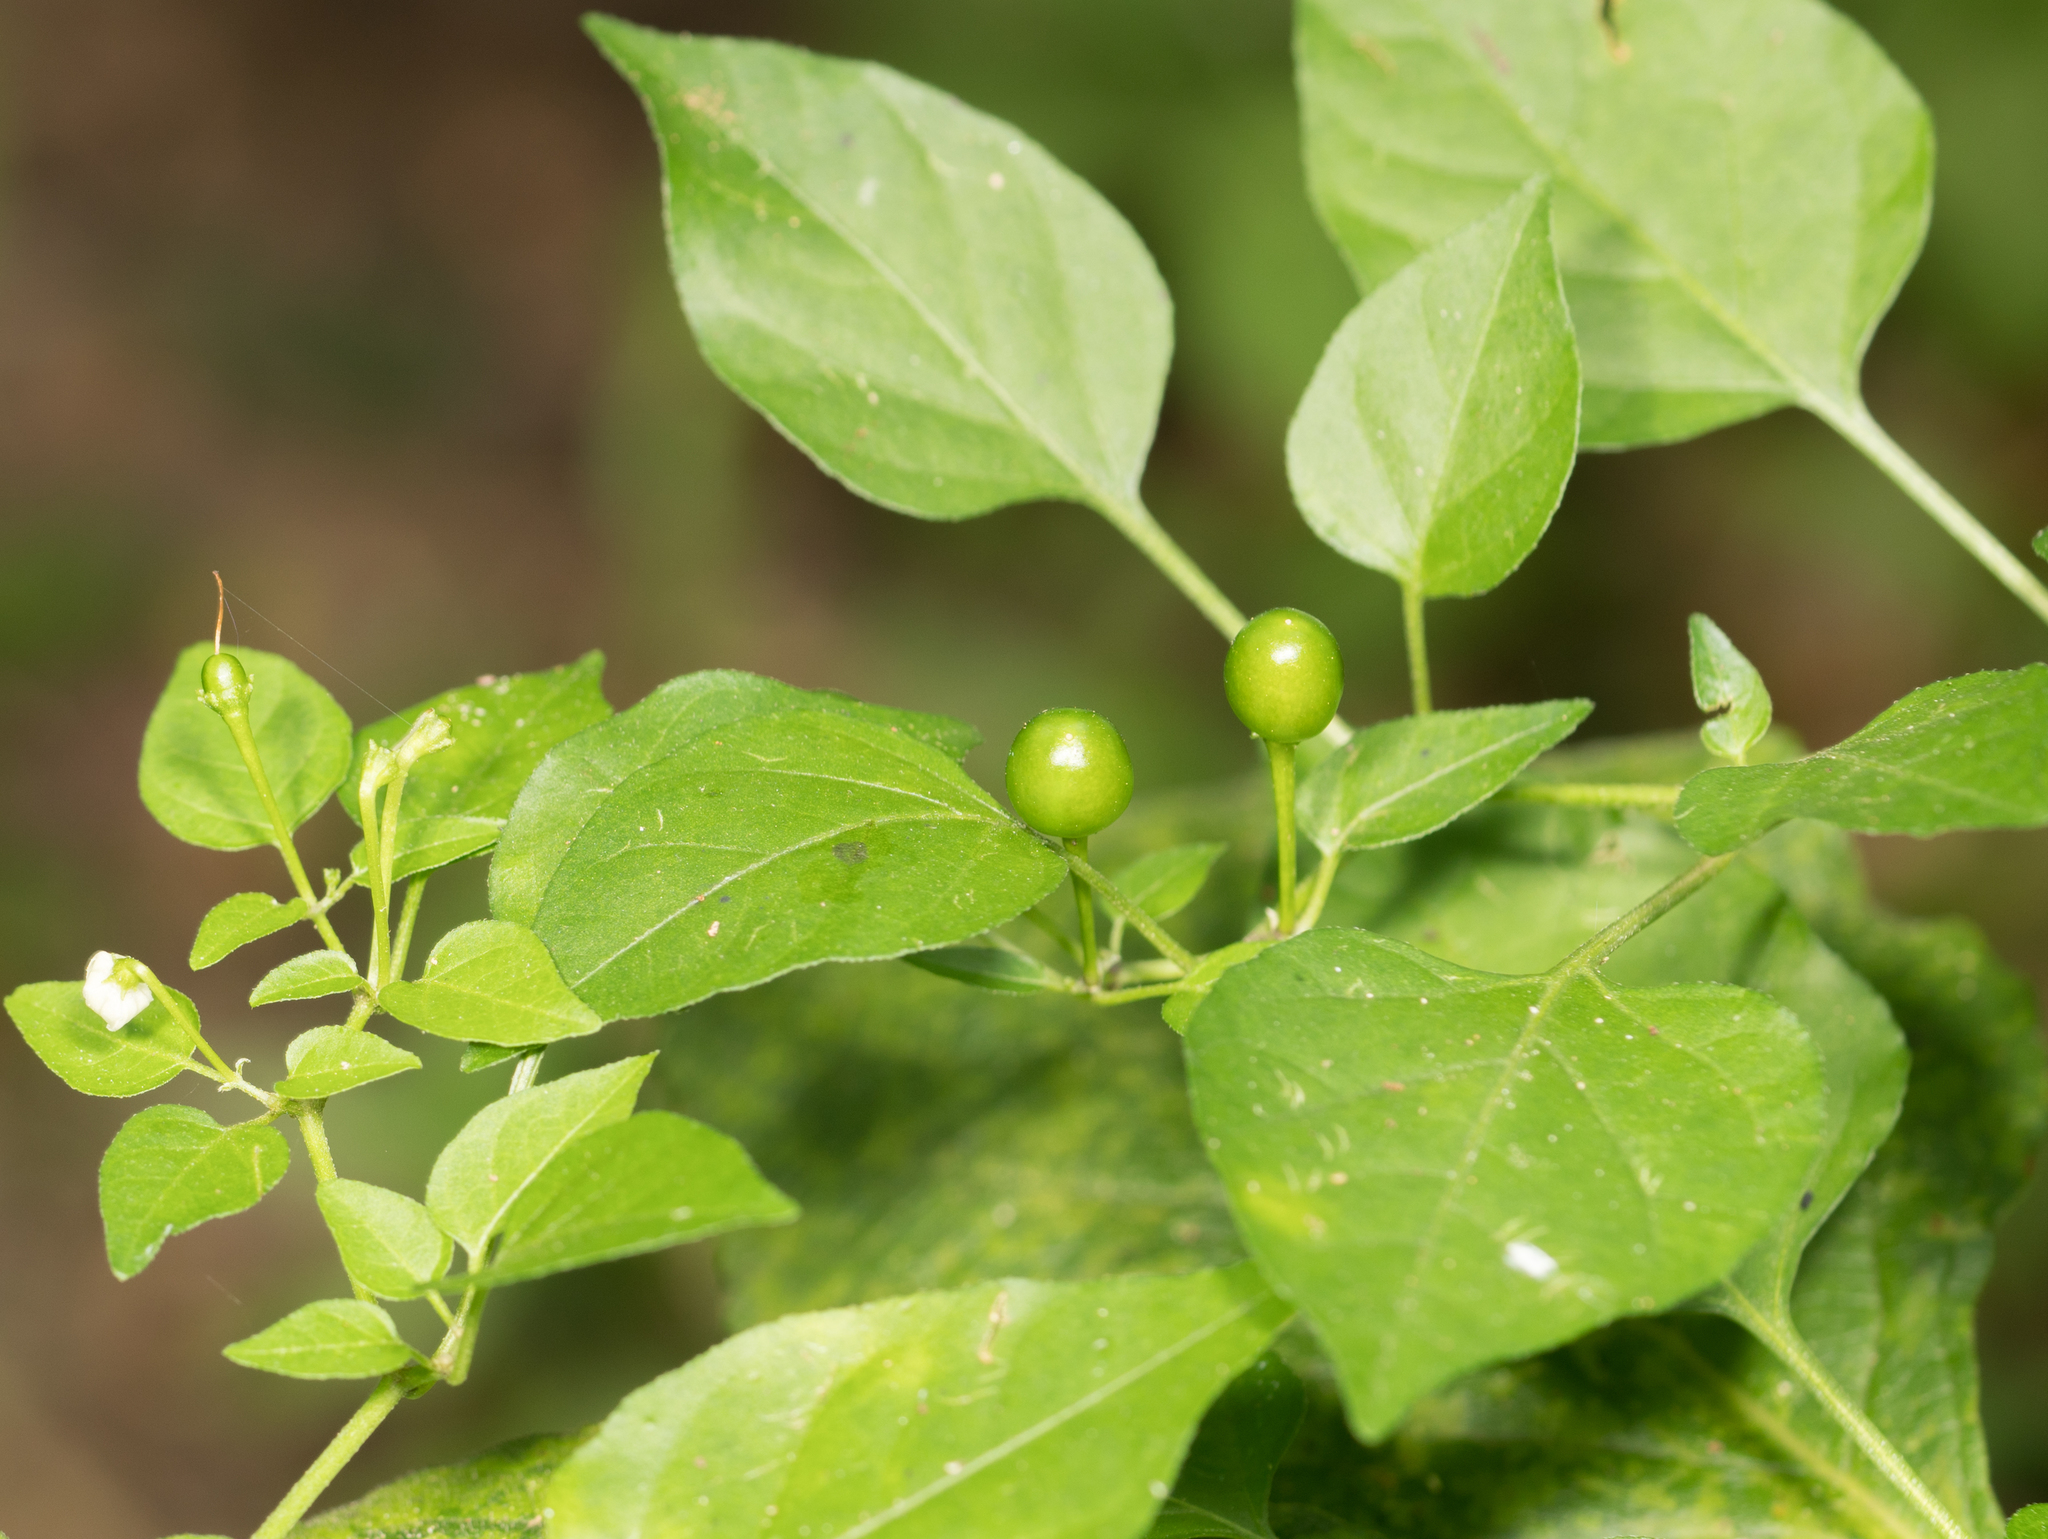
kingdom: Plantae
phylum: Tracheophyta
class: Magnoliopsida
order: Solanales
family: Solanaceae
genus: Capsicum
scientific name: Capsicum annuum
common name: Sweet pepper
